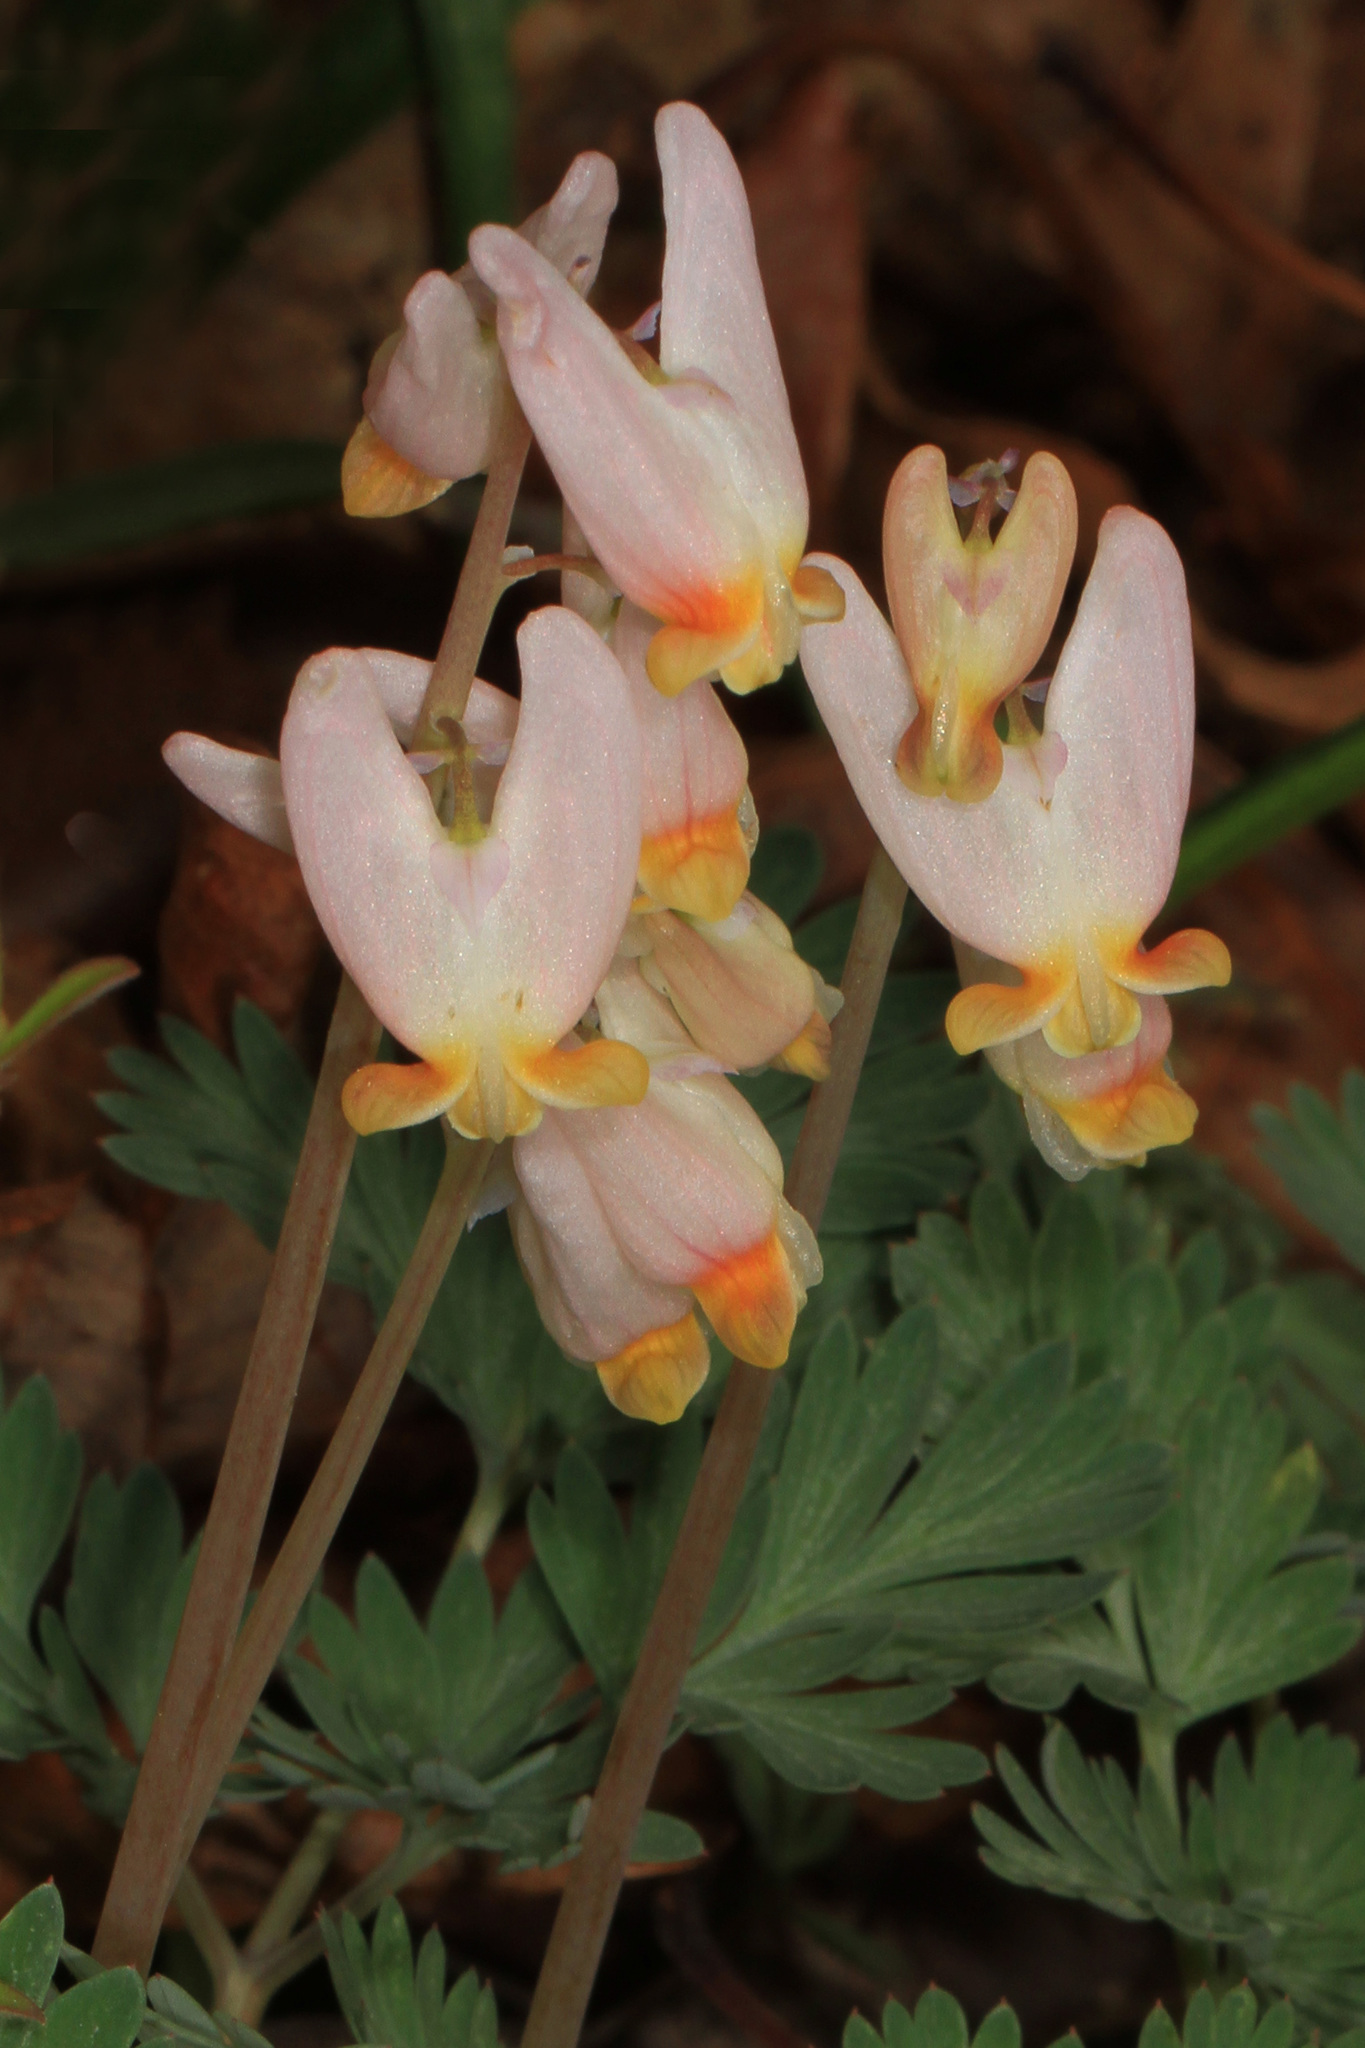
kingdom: Plantae
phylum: Tracheophyta
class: Magnoliopsida
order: Ranunculales
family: Papaveraceae
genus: Dicentra
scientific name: Dicentra cucullaria
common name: Dutchman's breeches
